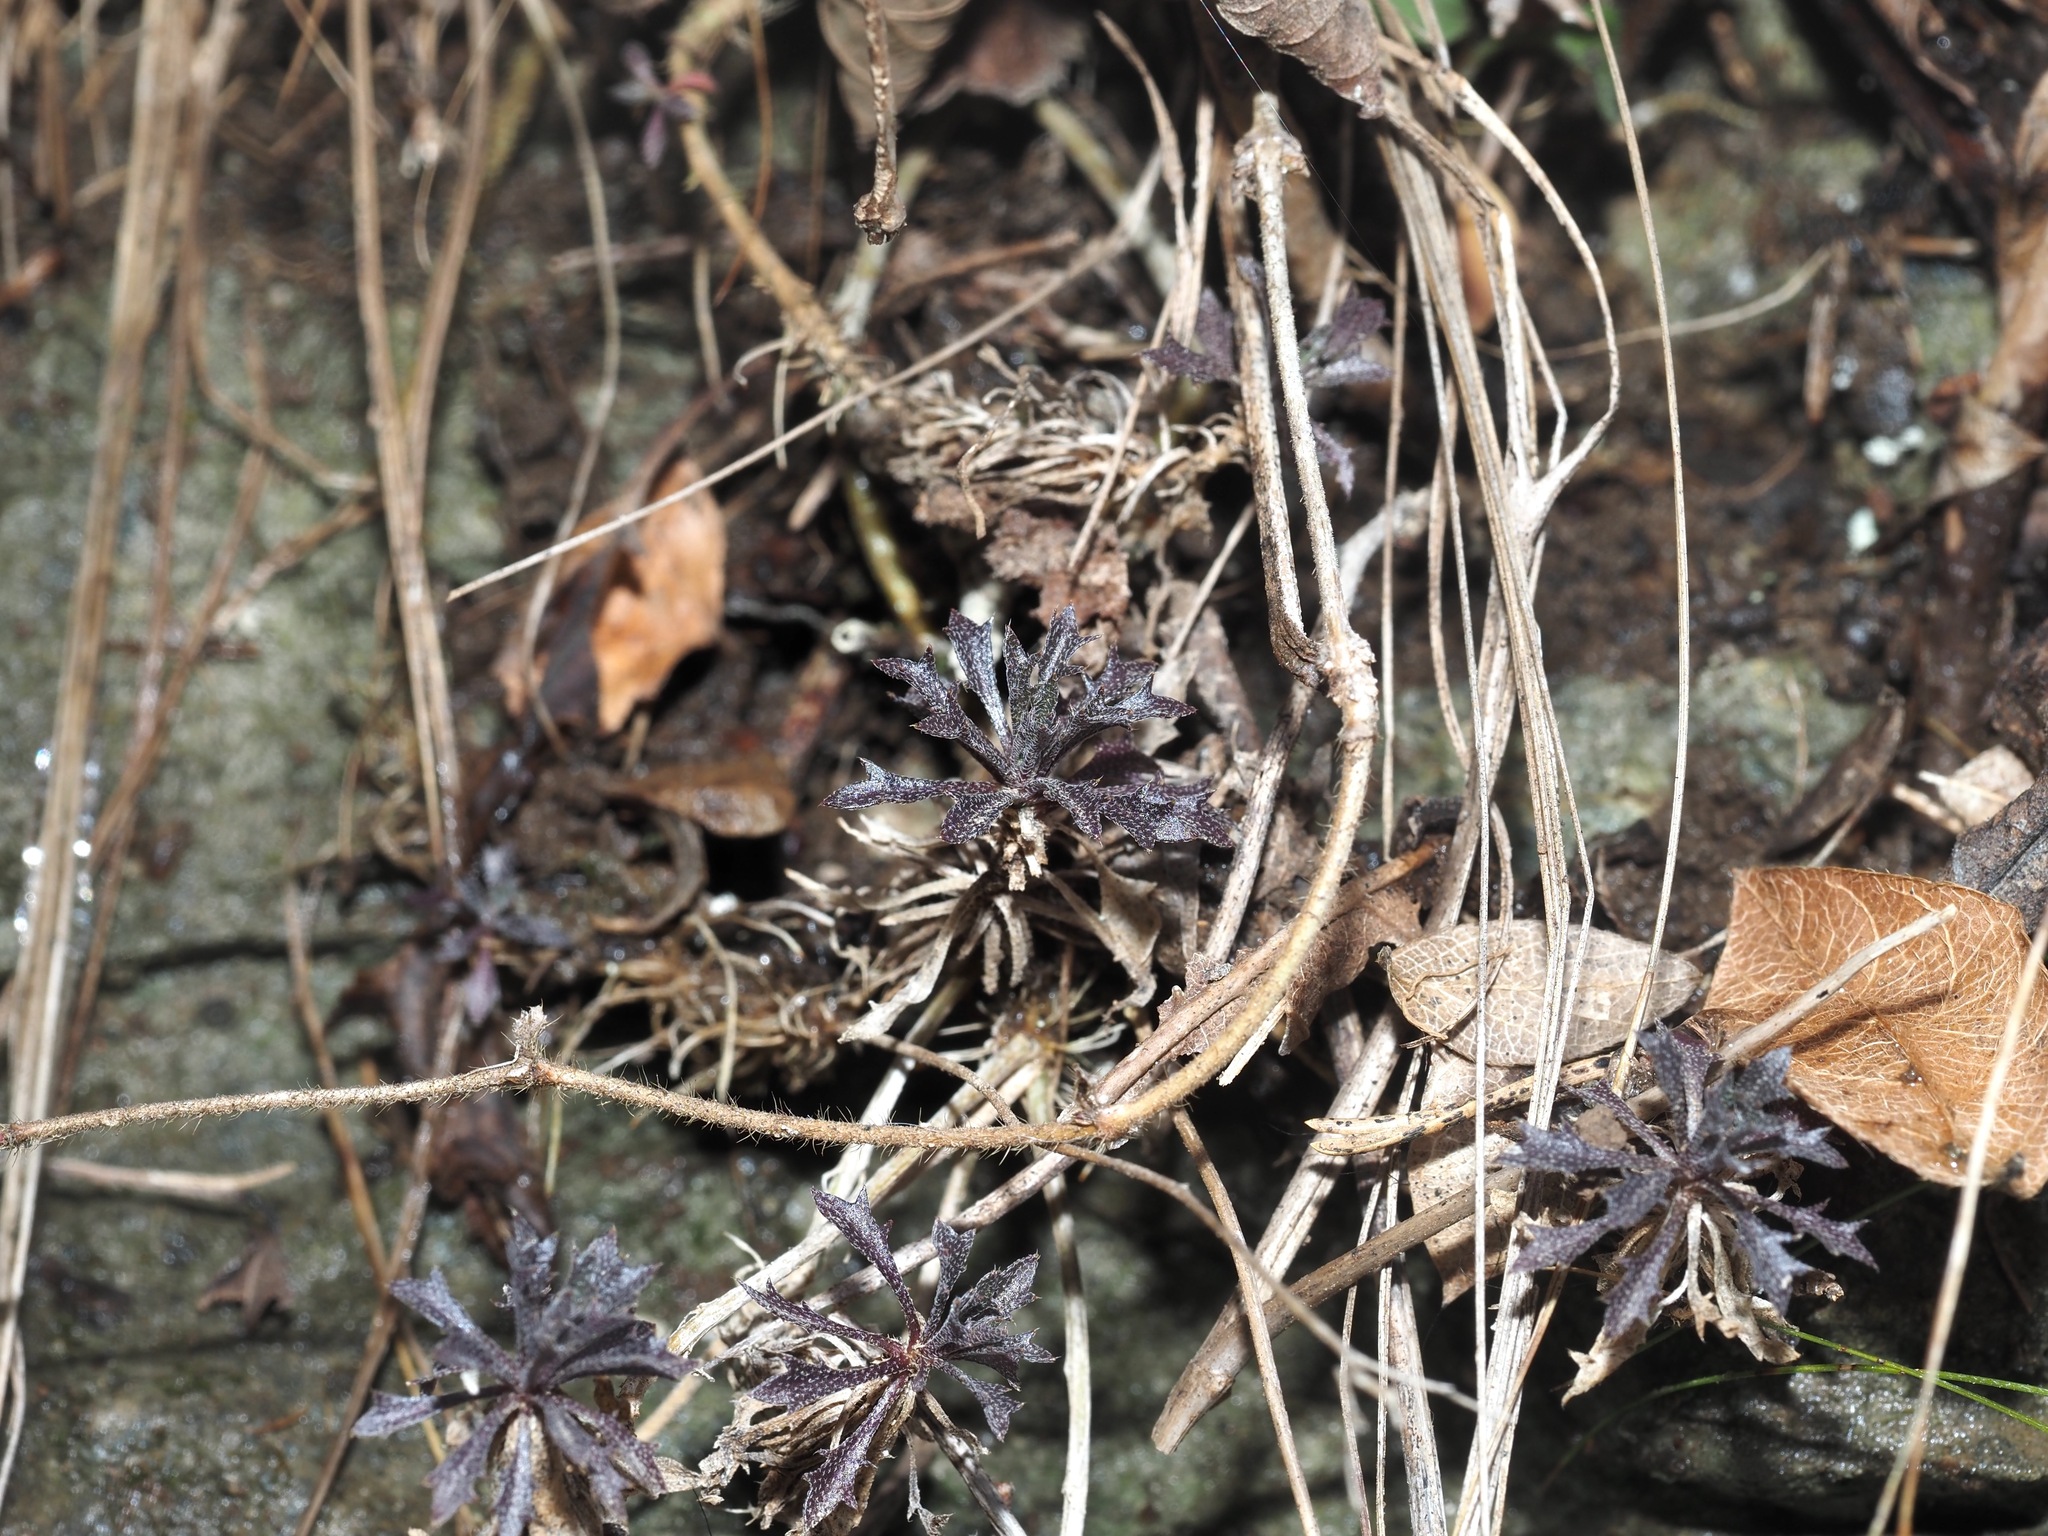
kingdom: Plantae
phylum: Tracheophyta
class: Magnoliopsida
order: Brassicales
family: Brassicaceae
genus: Draba
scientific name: Draba ramosissima
